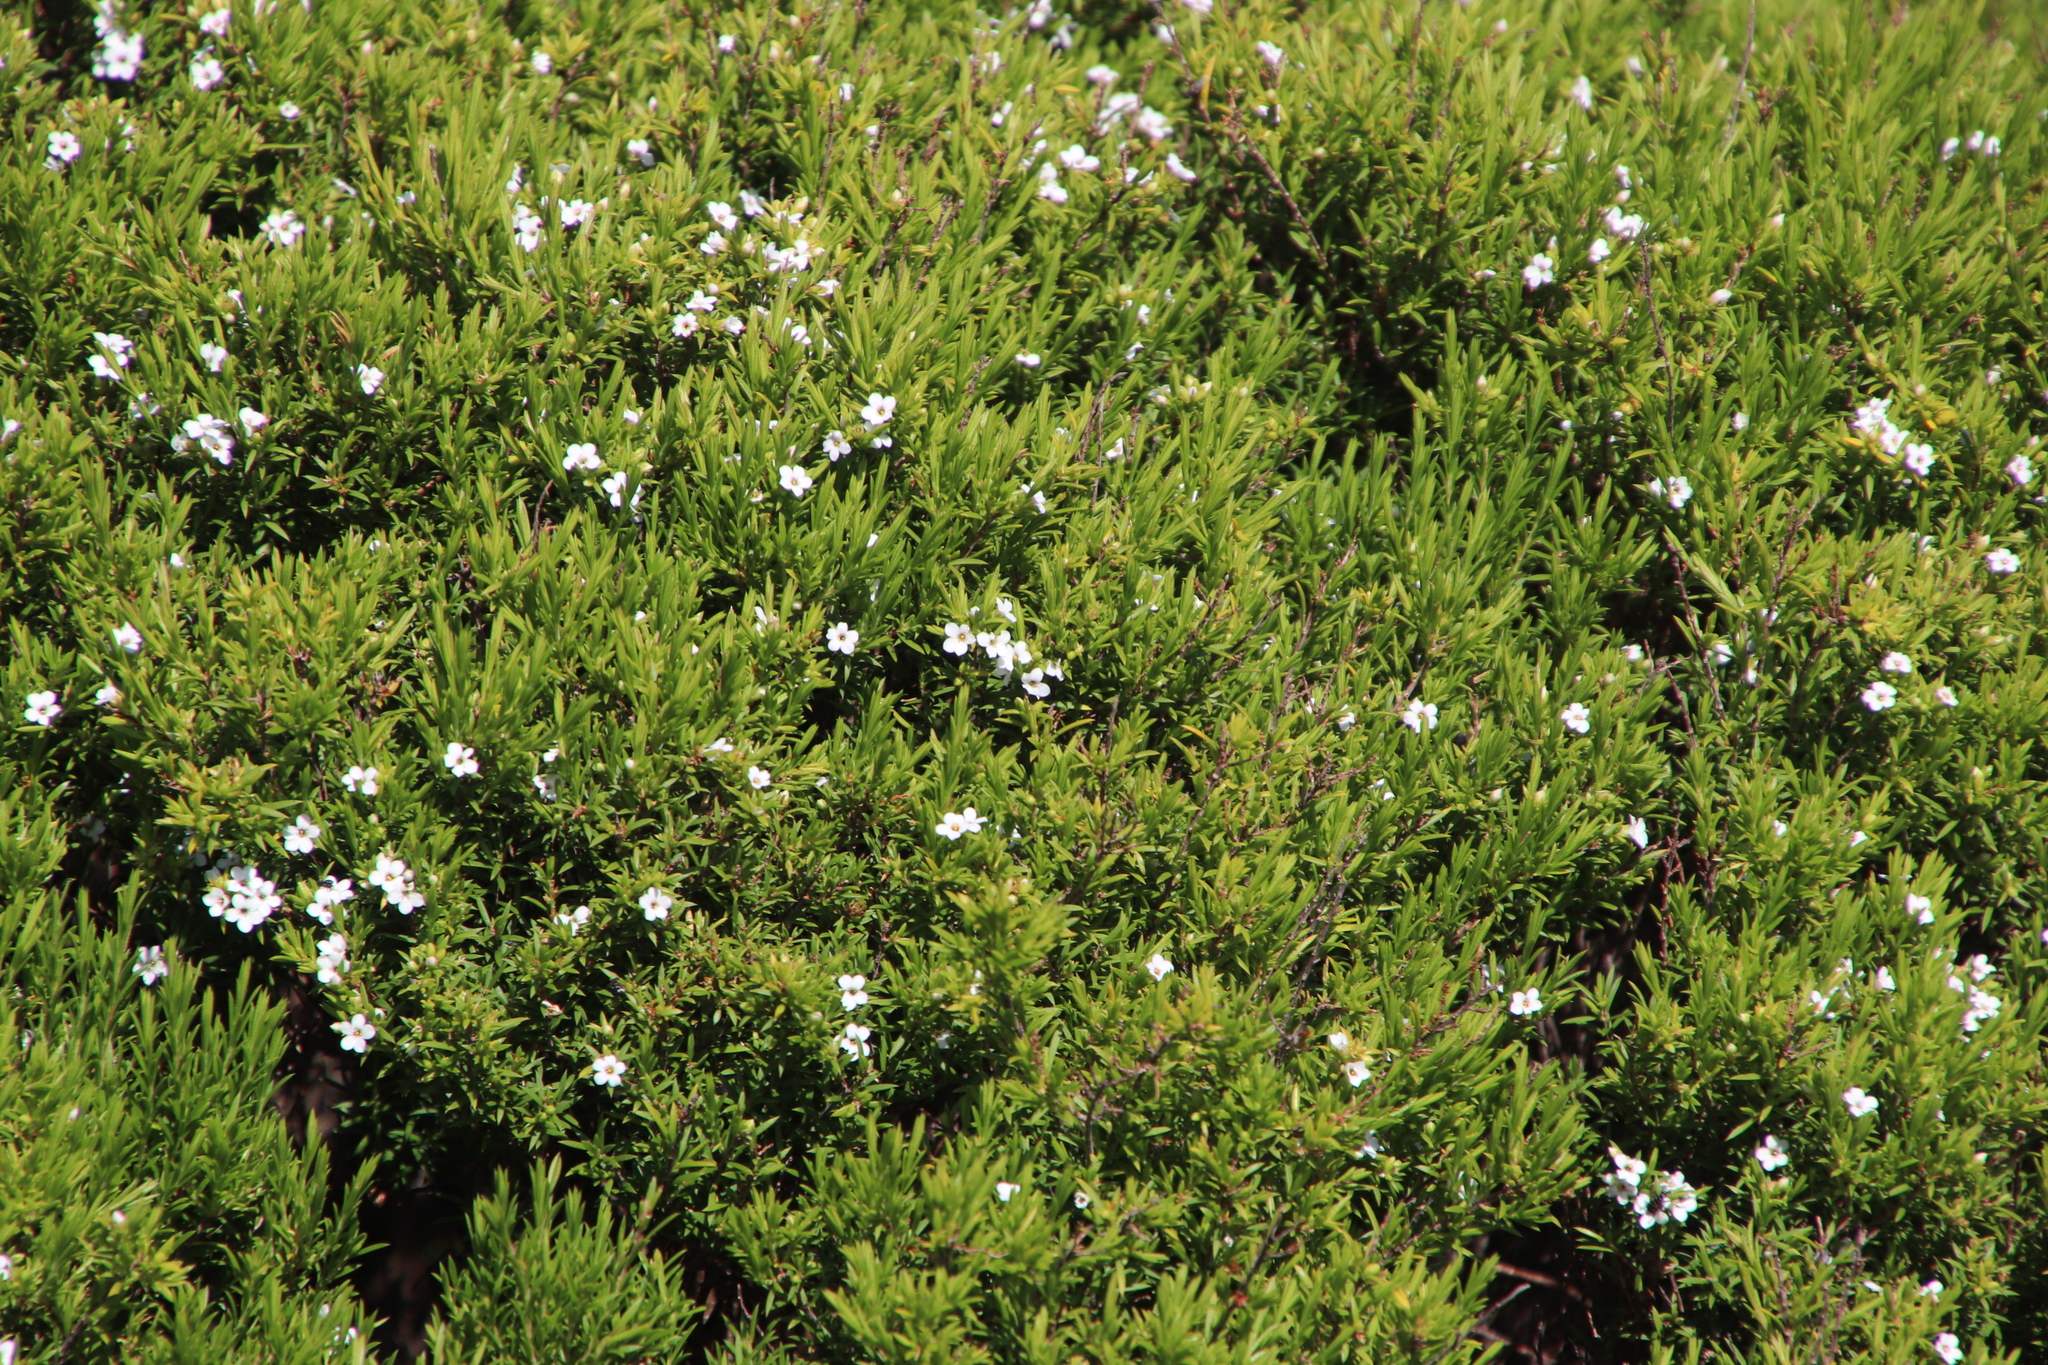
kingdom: Plantae
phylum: Tracheophyta
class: Magnoliopsida
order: Sapindales
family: Rutaceae
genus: Coleonema
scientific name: Coleonema album
